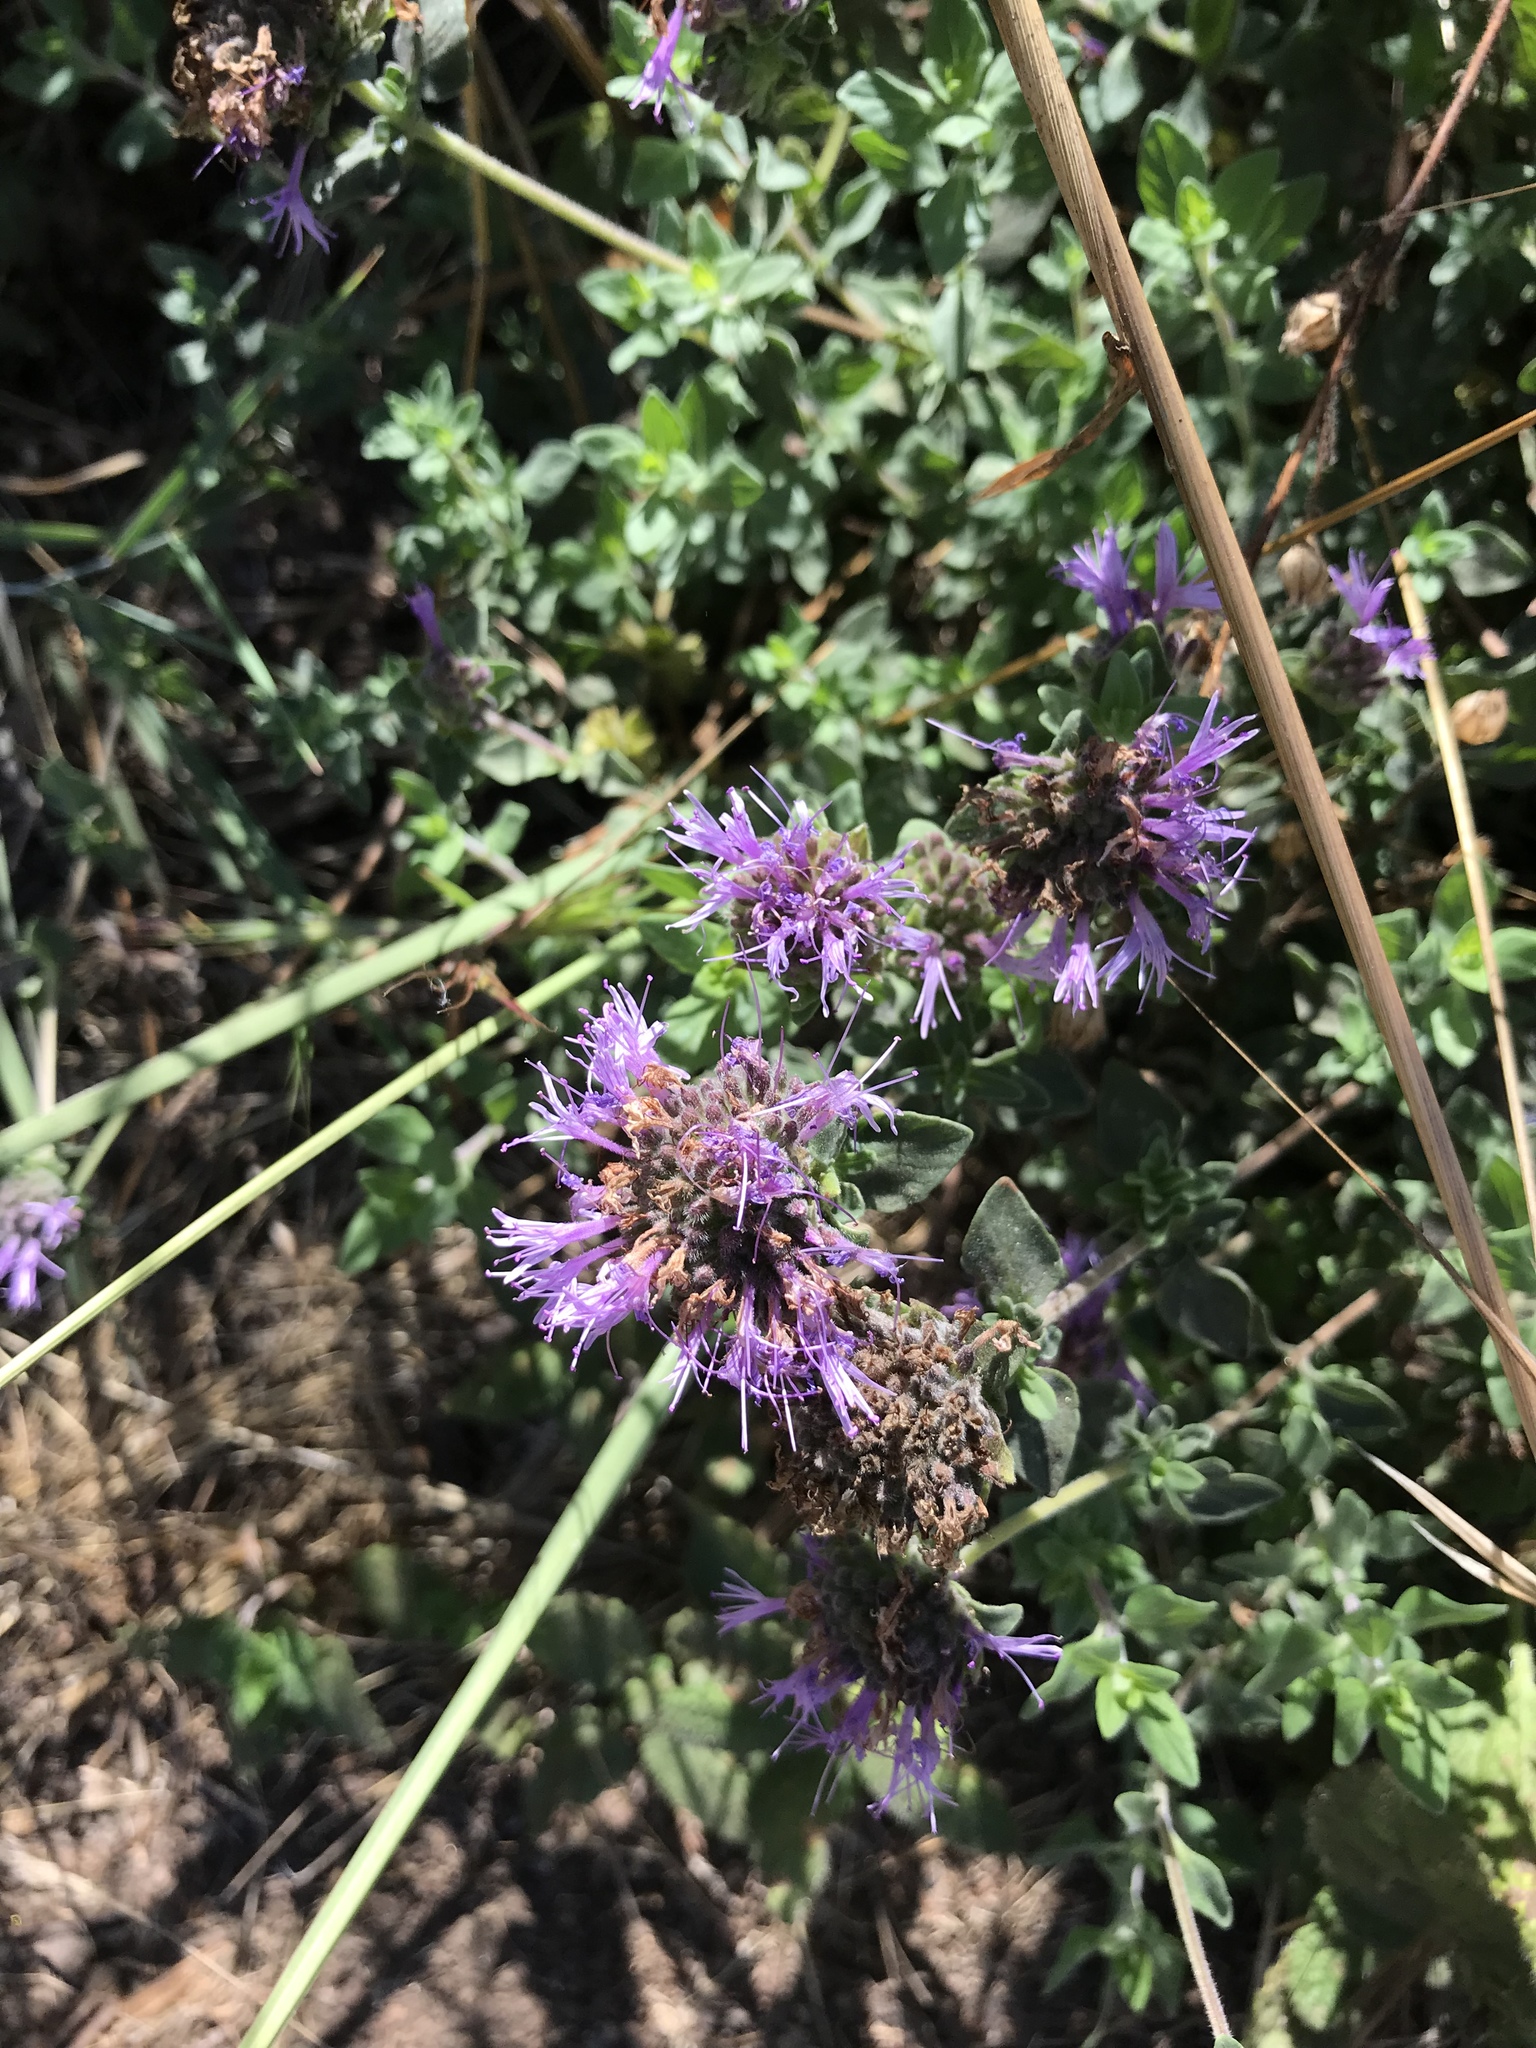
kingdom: Plantae
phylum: Tracheophyta
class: Magnoliopsida
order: Lamiales
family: Lamiaceae
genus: Monardella
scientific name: Monardella odoratissima
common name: Pacific monardella
